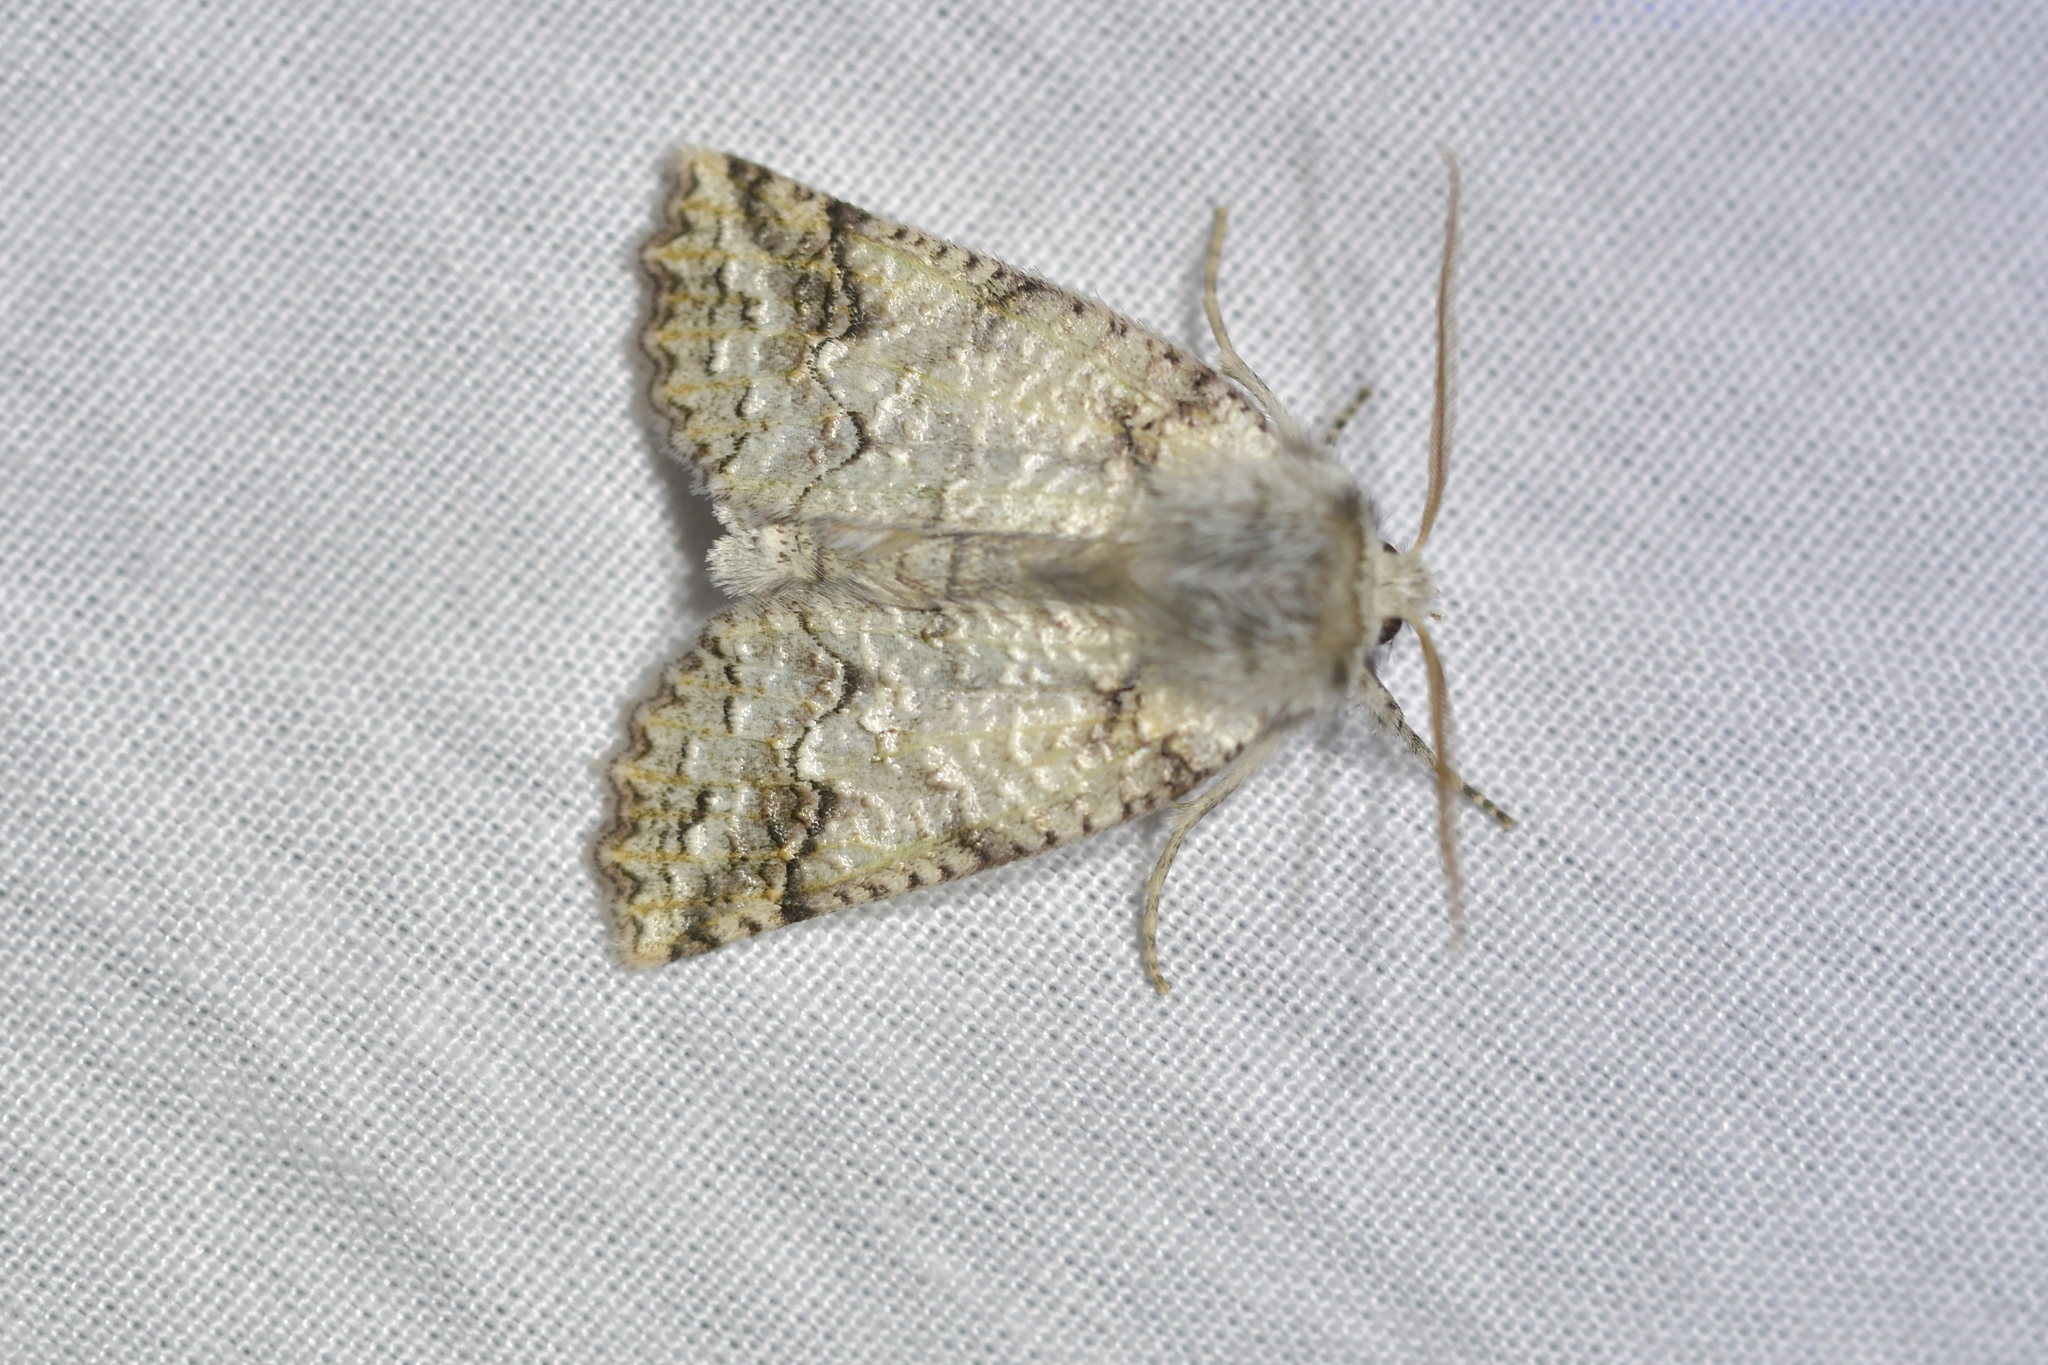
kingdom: Animalia
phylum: Arthropoda
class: Insecta
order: Lepidoptera
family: Geometridae
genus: Declana
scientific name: Declana floccosa
